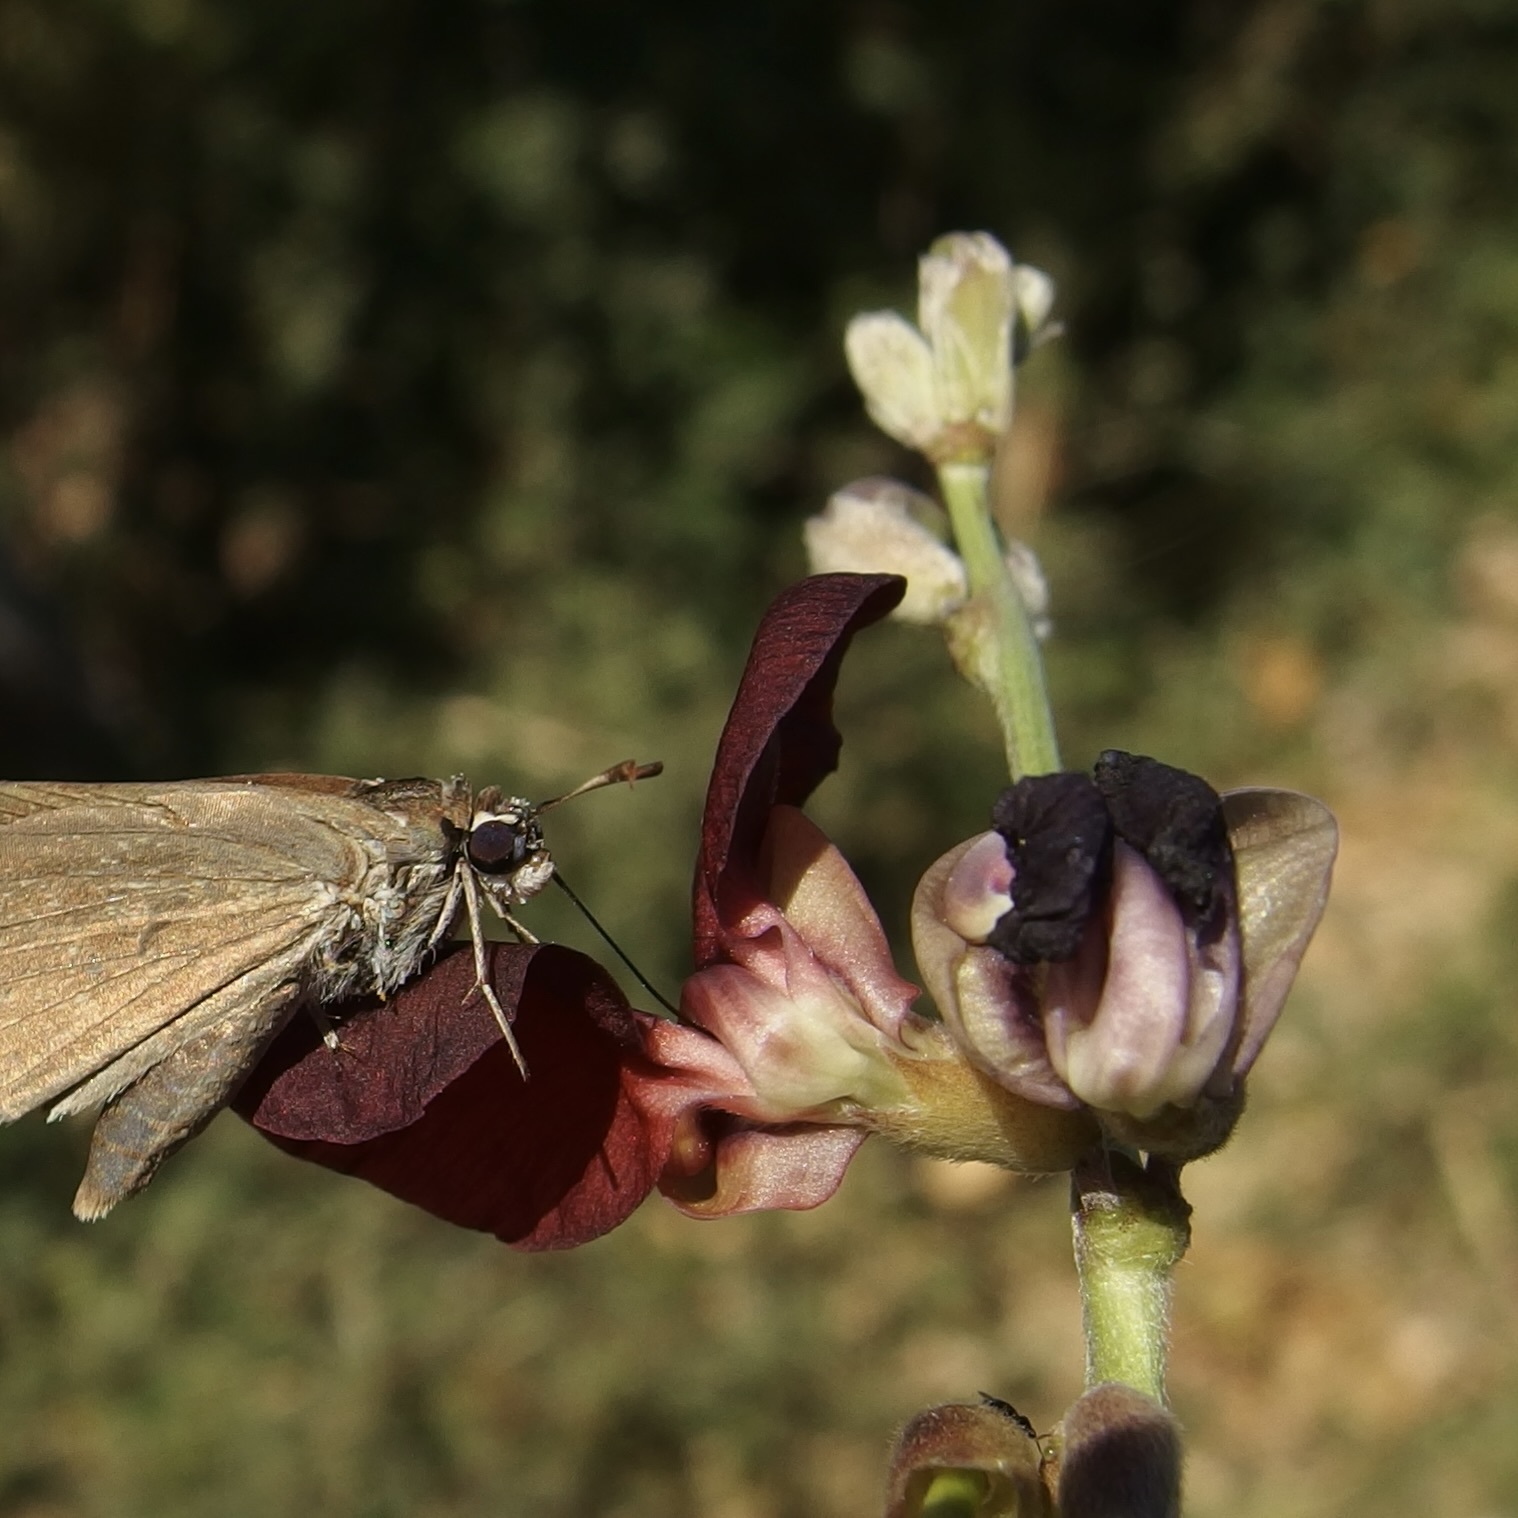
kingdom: Plantae
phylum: Tracheophyta
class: Magnoliopsida
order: Fabales
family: Fabaceae
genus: Macroptilium
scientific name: Macroptilium atropurpureum
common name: Purple bushbean
